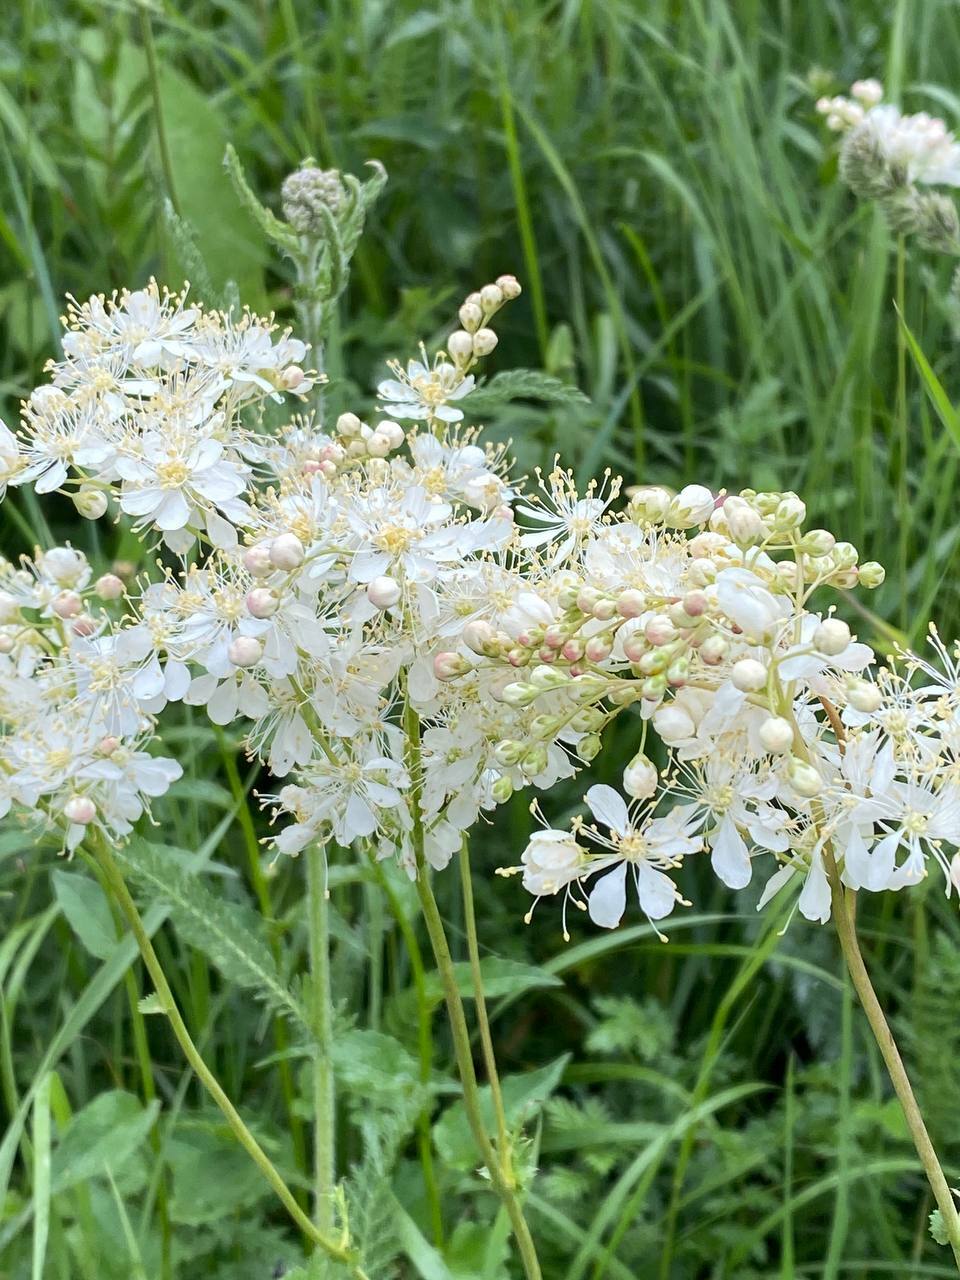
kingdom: Plantae
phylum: Tracheophyta
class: Magnoliopsida
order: Rosales
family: Rosaceae
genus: Filipendula
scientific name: Filipendula vulgaris
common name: Dropwort
